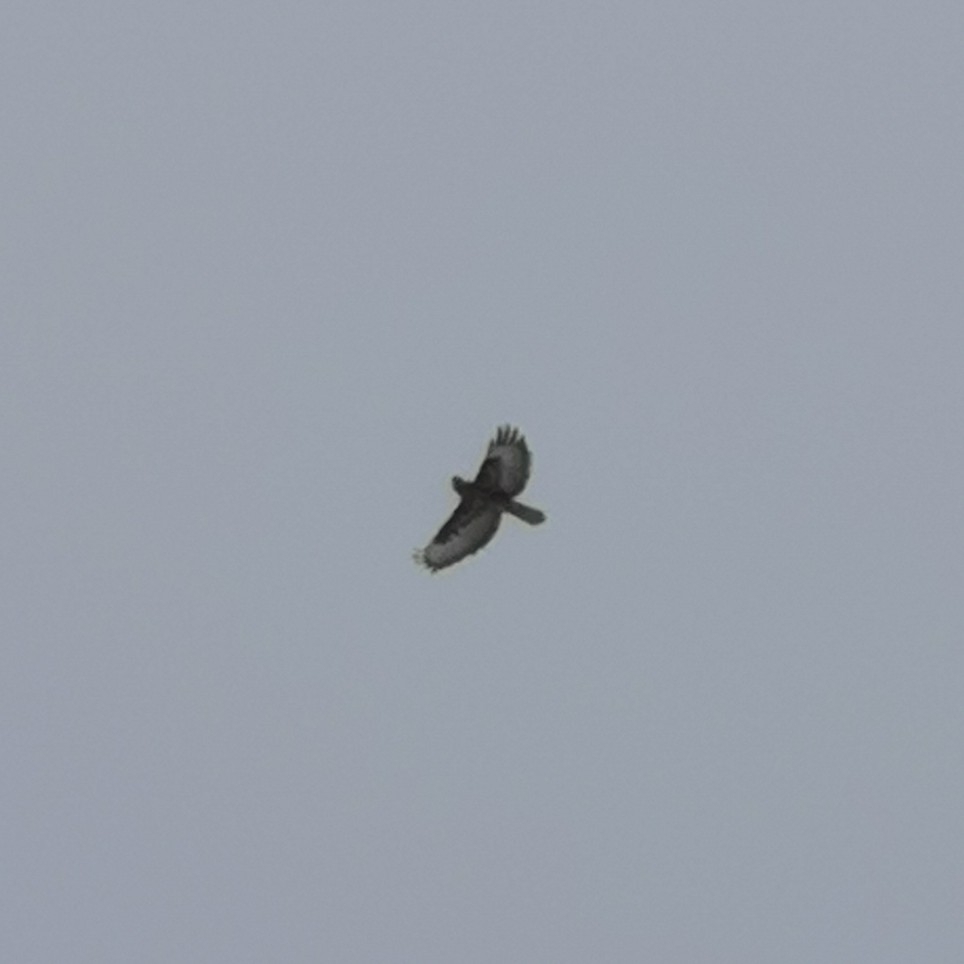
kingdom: Animalia
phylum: Chordata
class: Aves
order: Accipitriformes
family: Accipitridae
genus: Buteo
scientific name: Buteo buteo
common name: Common buzzard
